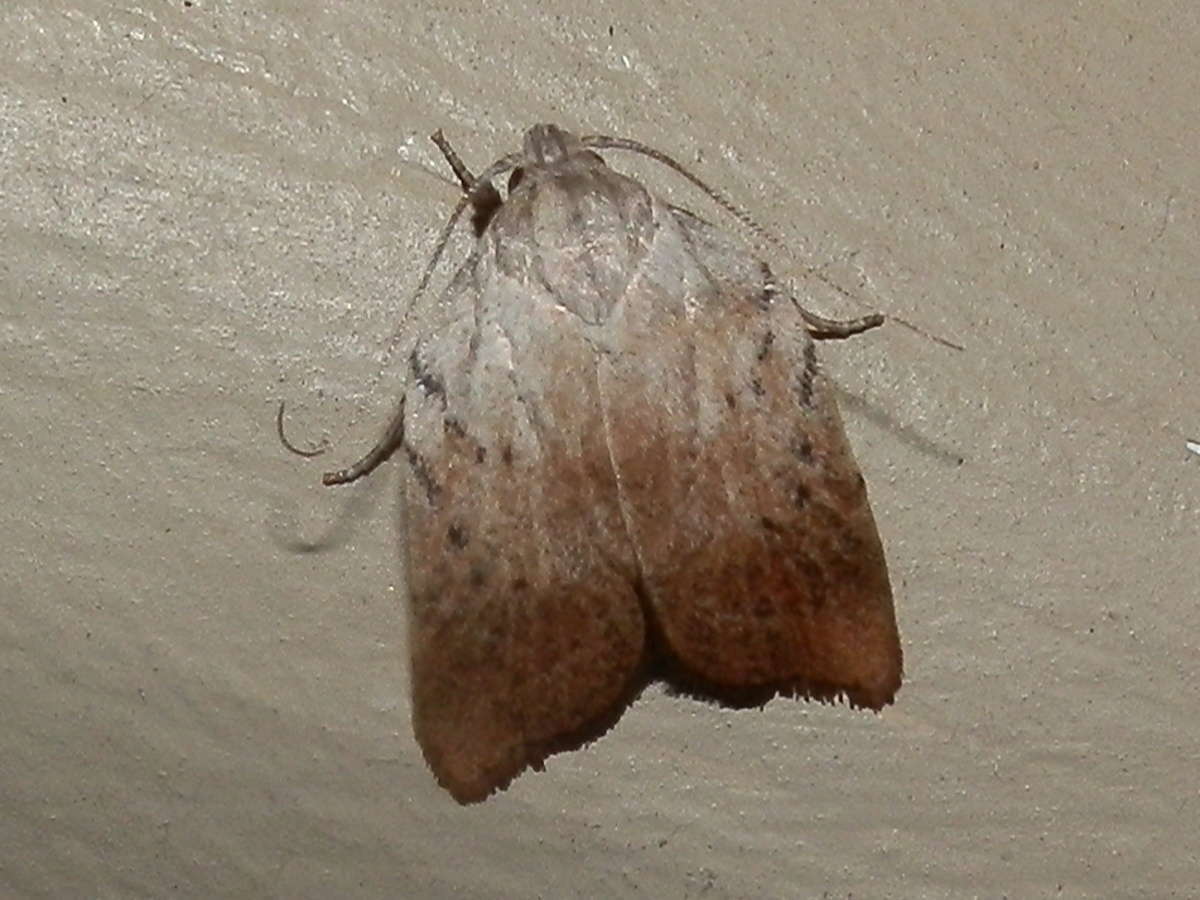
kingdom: Animalia
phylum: Arthropoda
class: Insecta
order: Lepidoptera
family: Oecophoridae
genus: Tortricopsis
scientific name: Tortricopsis pyroptis
